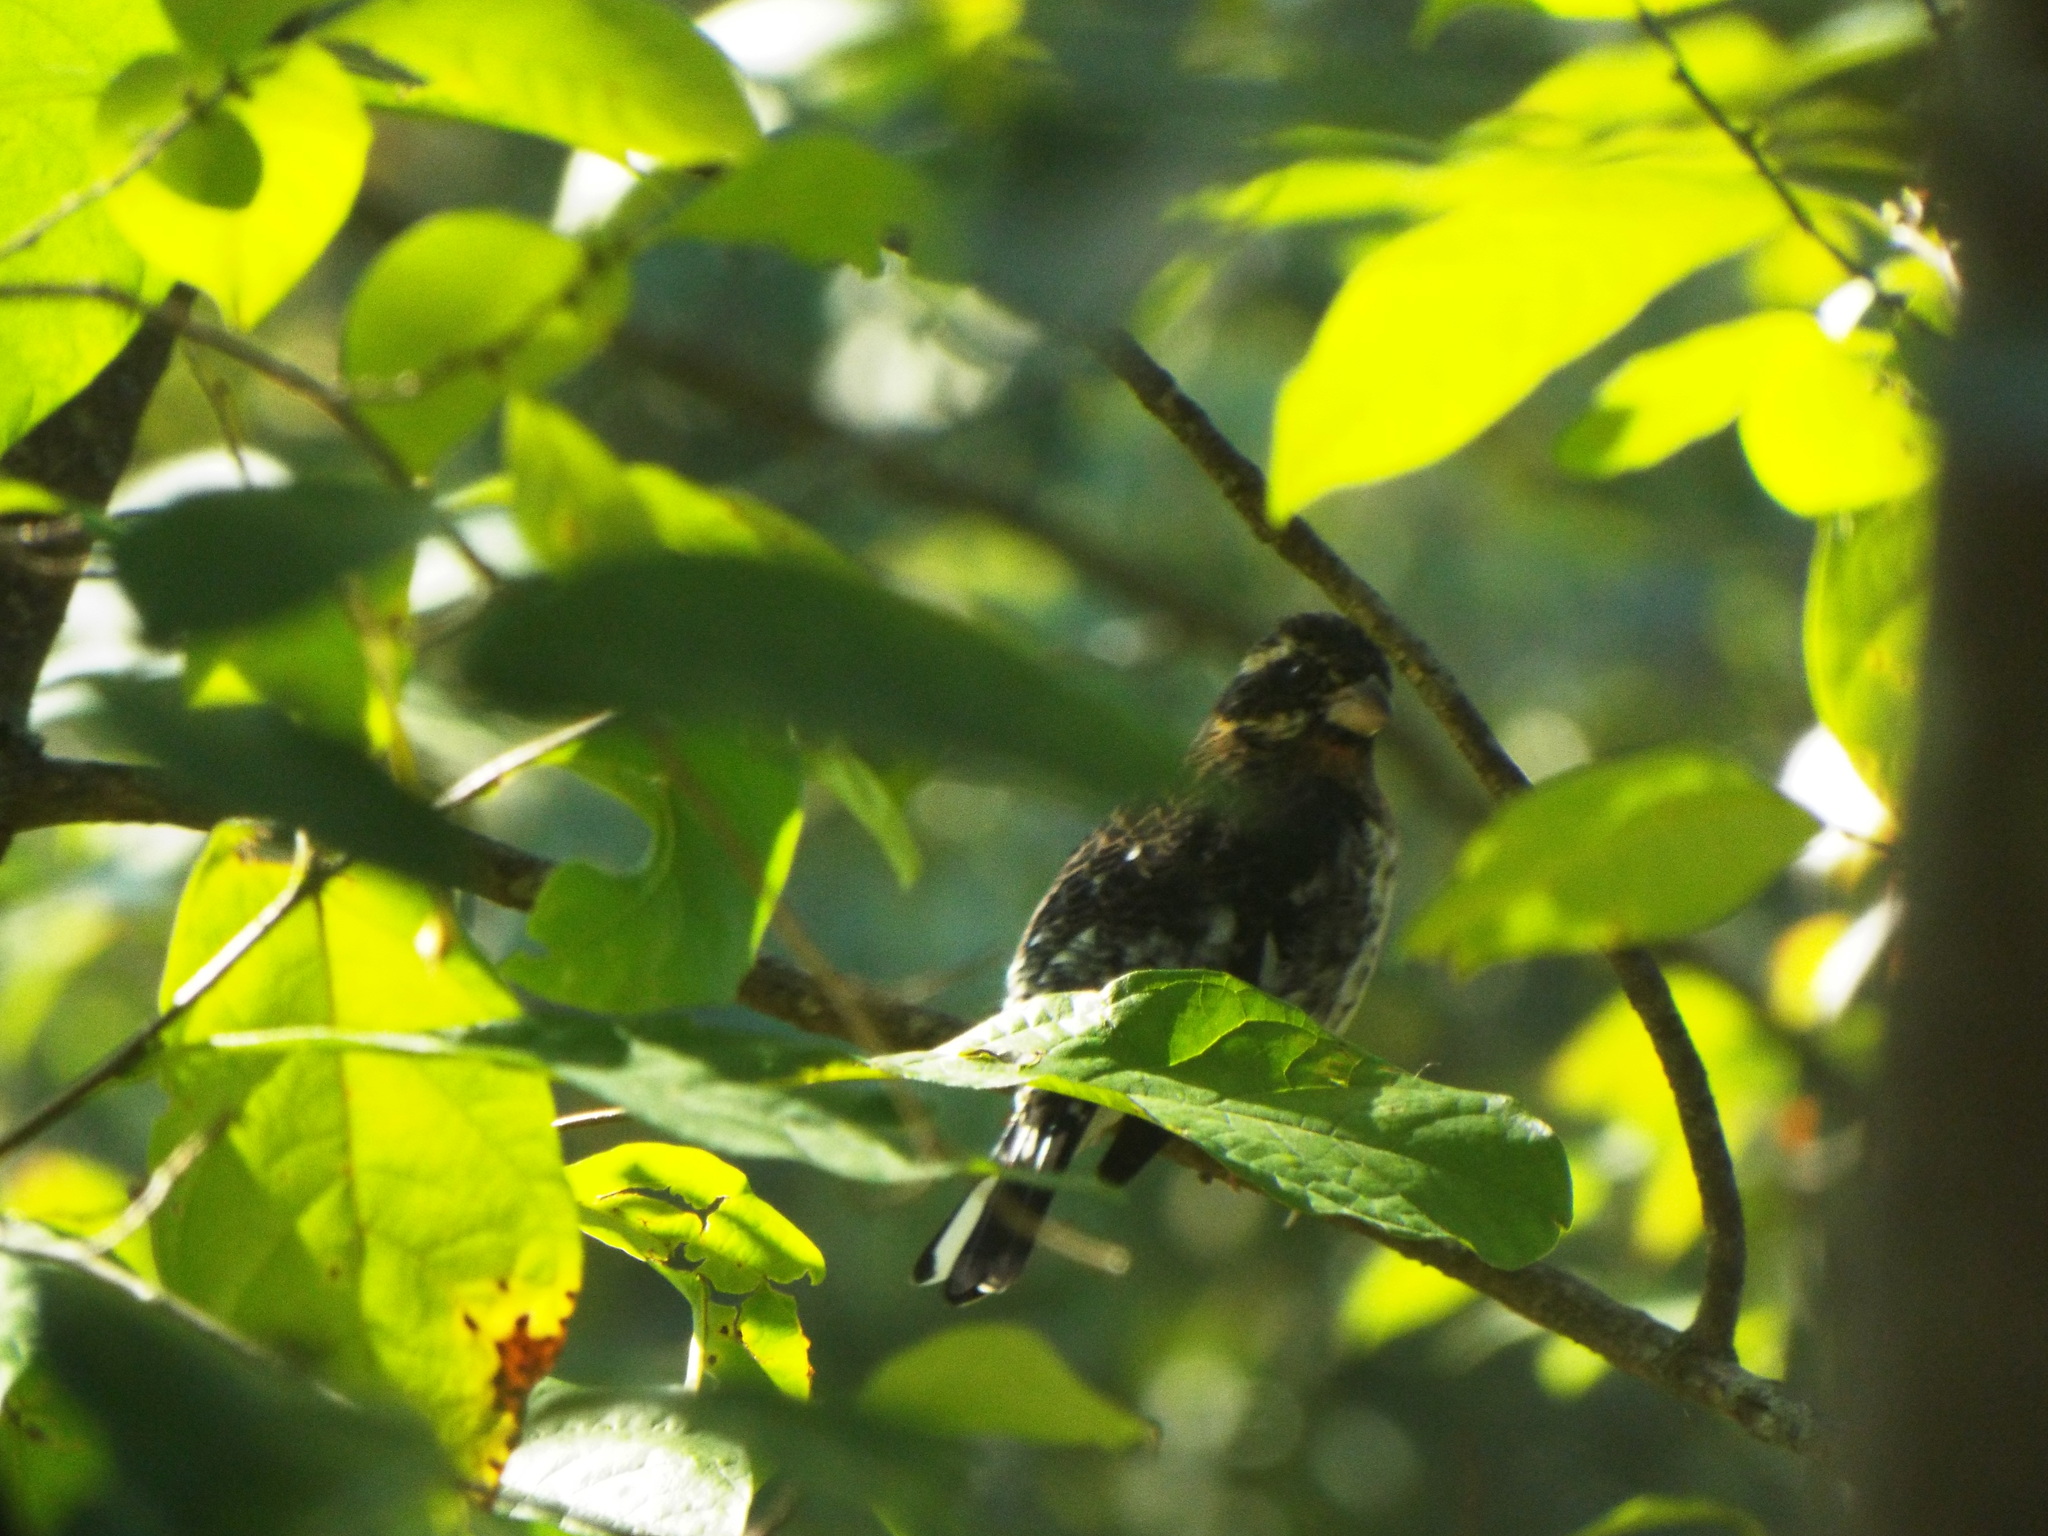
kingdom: Animalia
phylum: Chordata
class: Aves
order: Passeriformes
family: Cardinalidae
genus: Pheucticus
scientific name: Pheucticus ludovicianus
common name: Rose-breasted grosbeak
